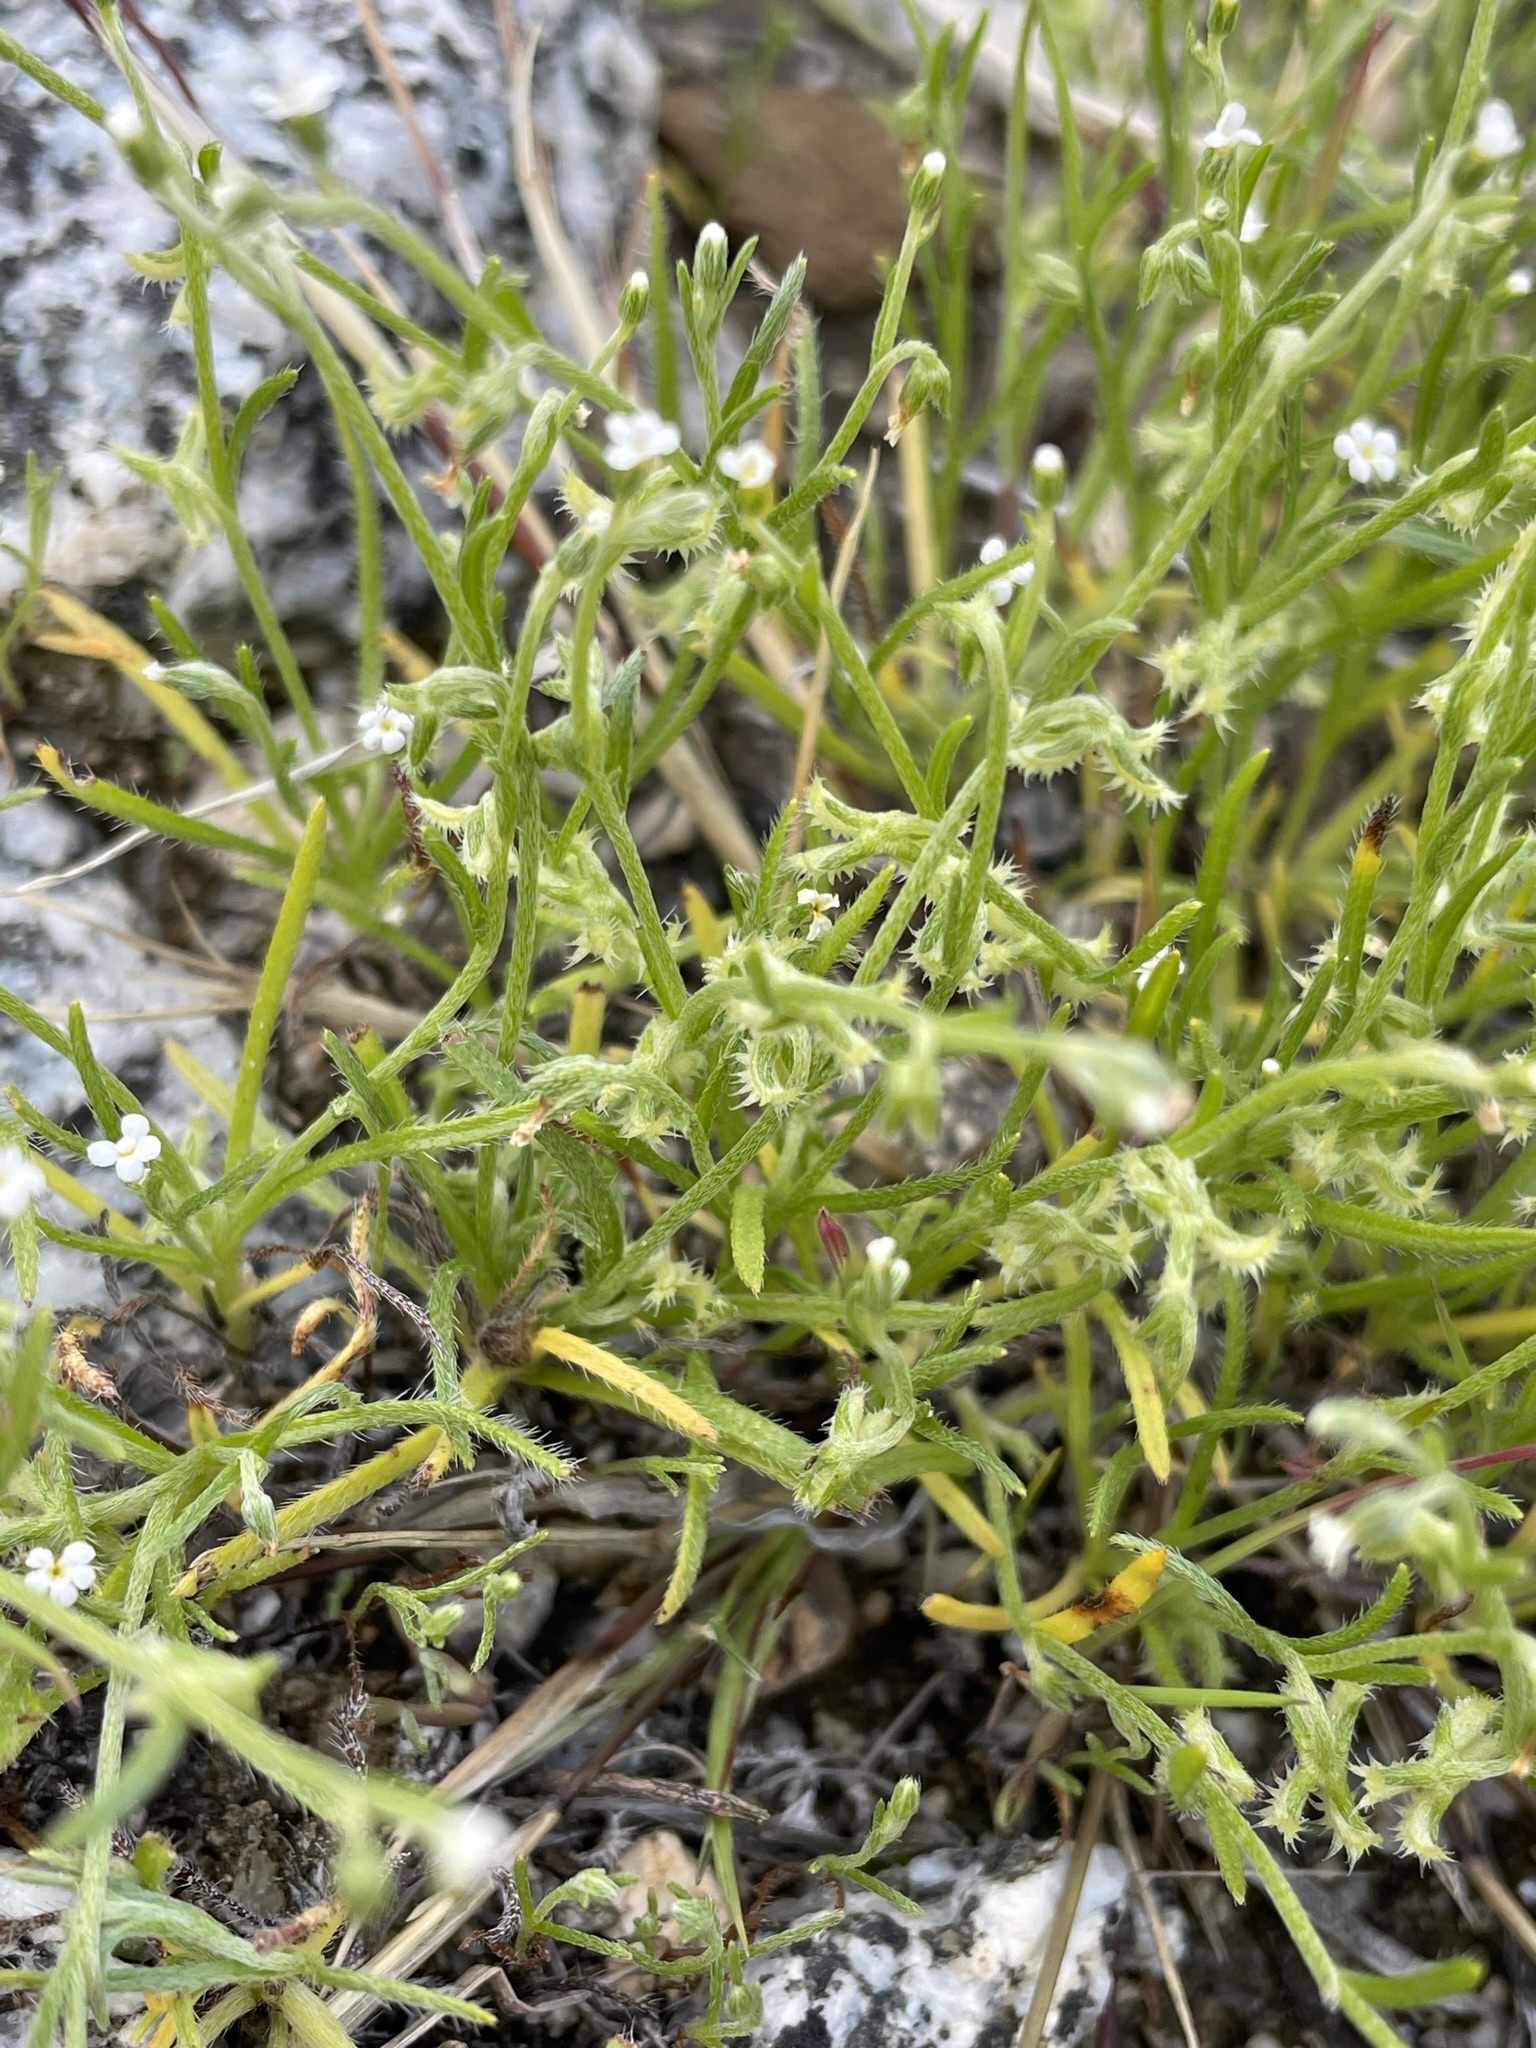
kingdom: Plantae
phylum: Tracheophyta
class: Magnoliopsida
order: Boraginales
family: Boraginaceae
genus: Pectocarya
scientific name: Pectocarya recurvata
